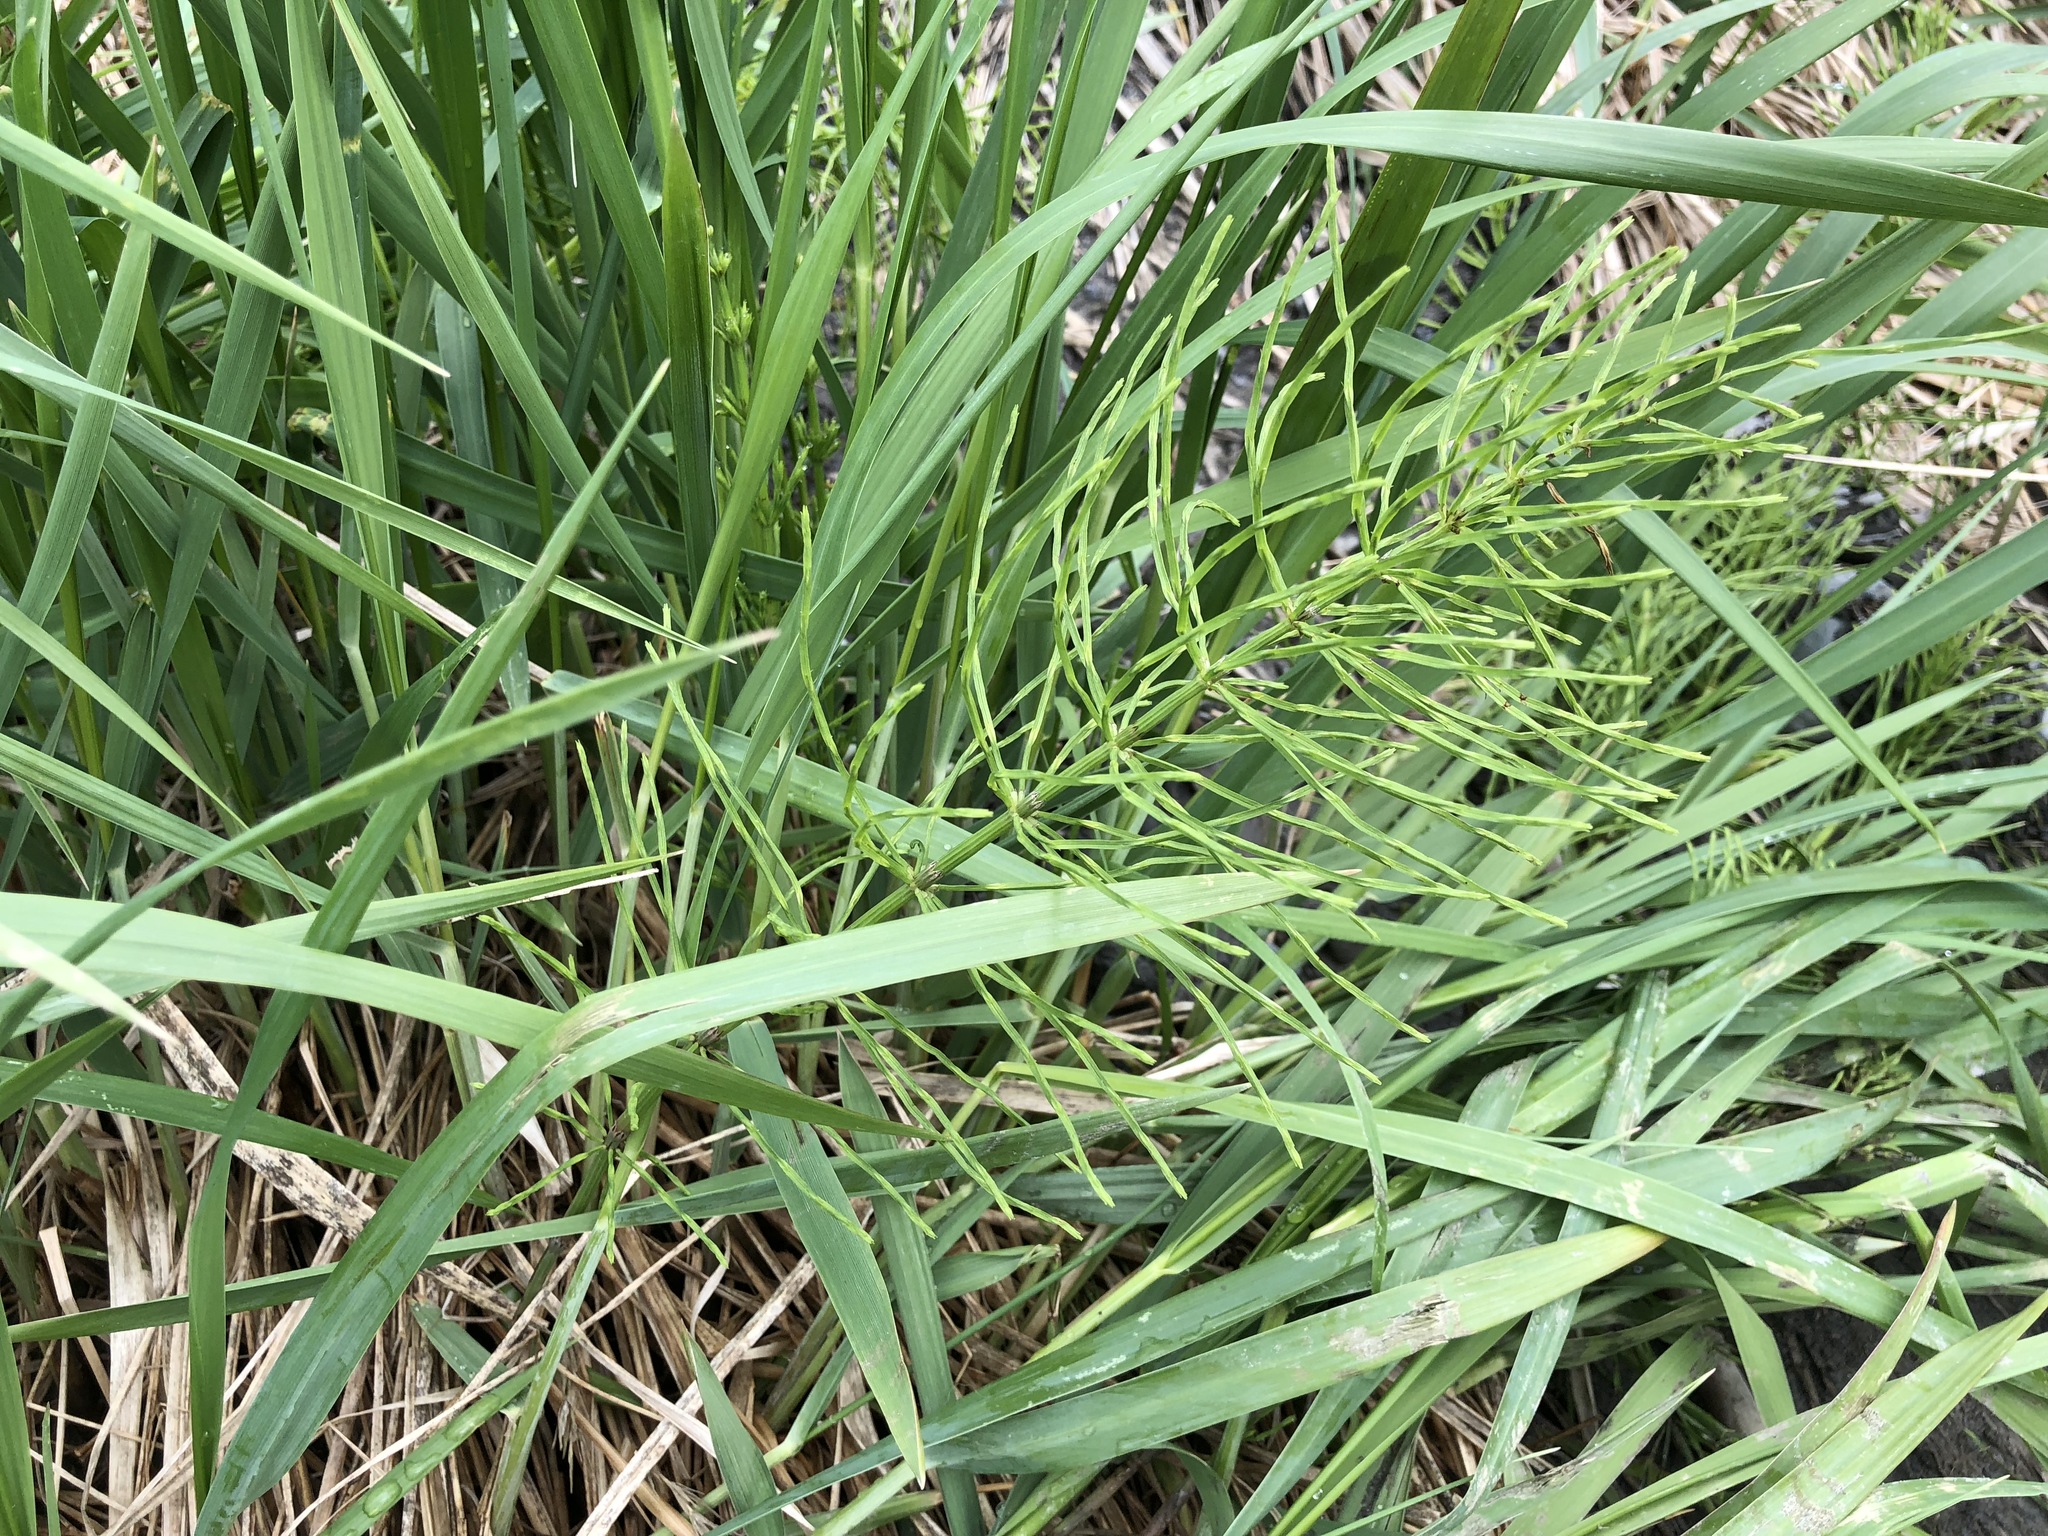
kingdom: Plantae
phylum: Tracheophyta
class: Polypodiopsida
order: Equisetales
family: Equisetaceae
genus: Equisetum
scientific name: Equisetum arvense
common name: Field horsetail
